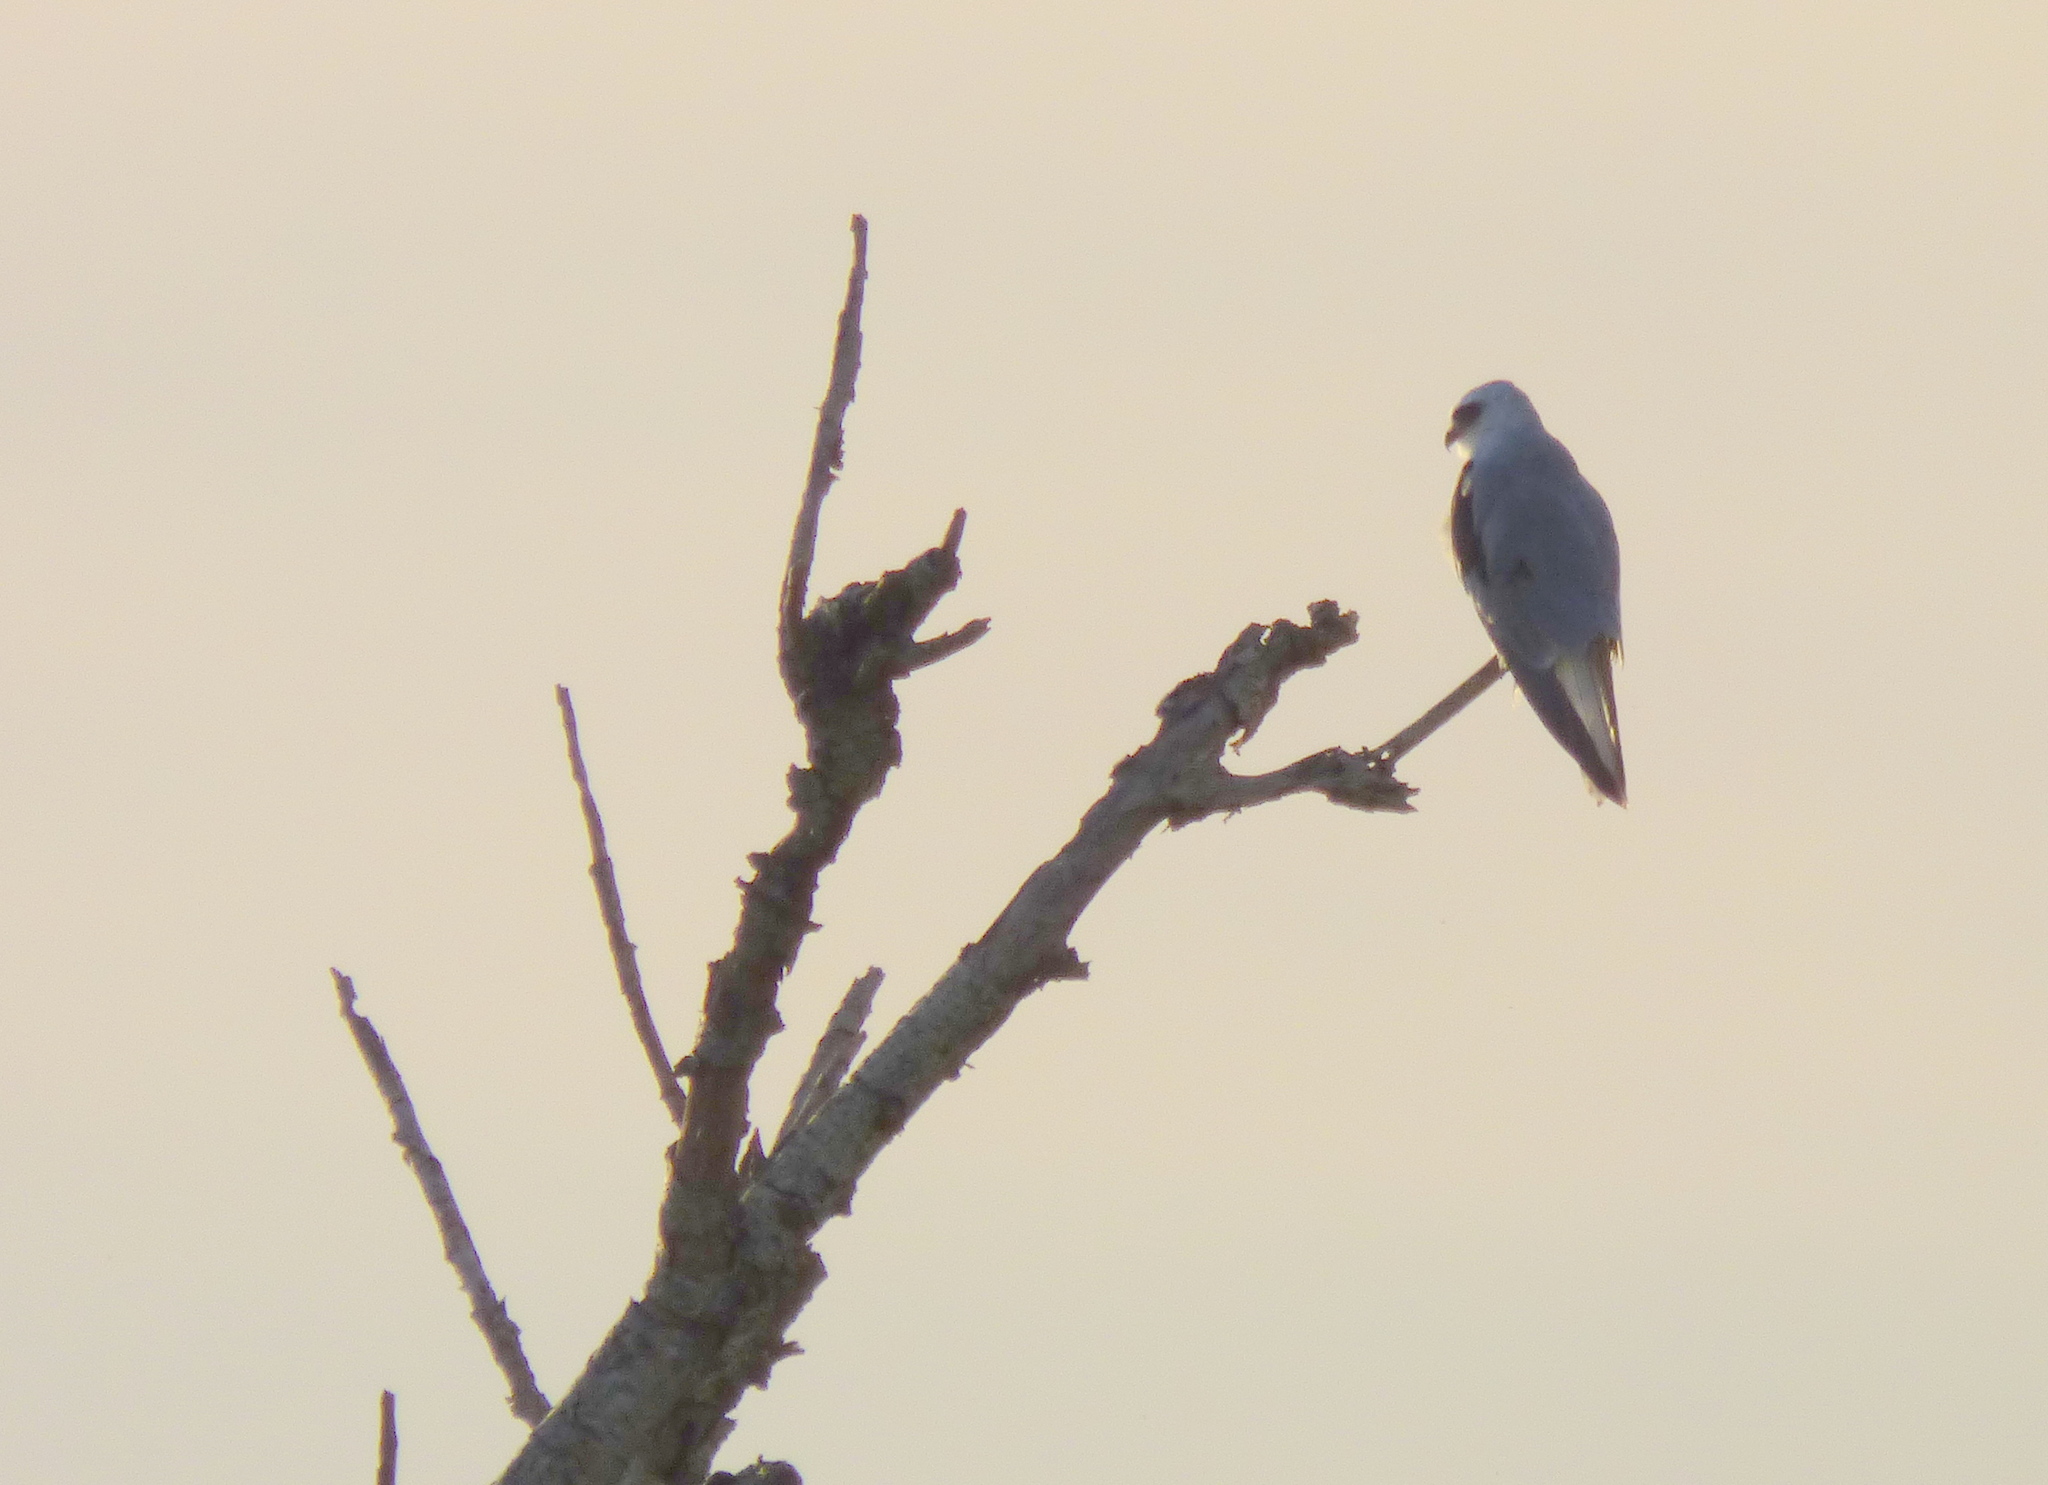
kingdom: Animalia
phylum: Chordata
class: Aves
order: Accipitriformes
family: Accipitridae
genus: Elanus
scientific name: Elanus leucurus
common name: White-tailed kite
